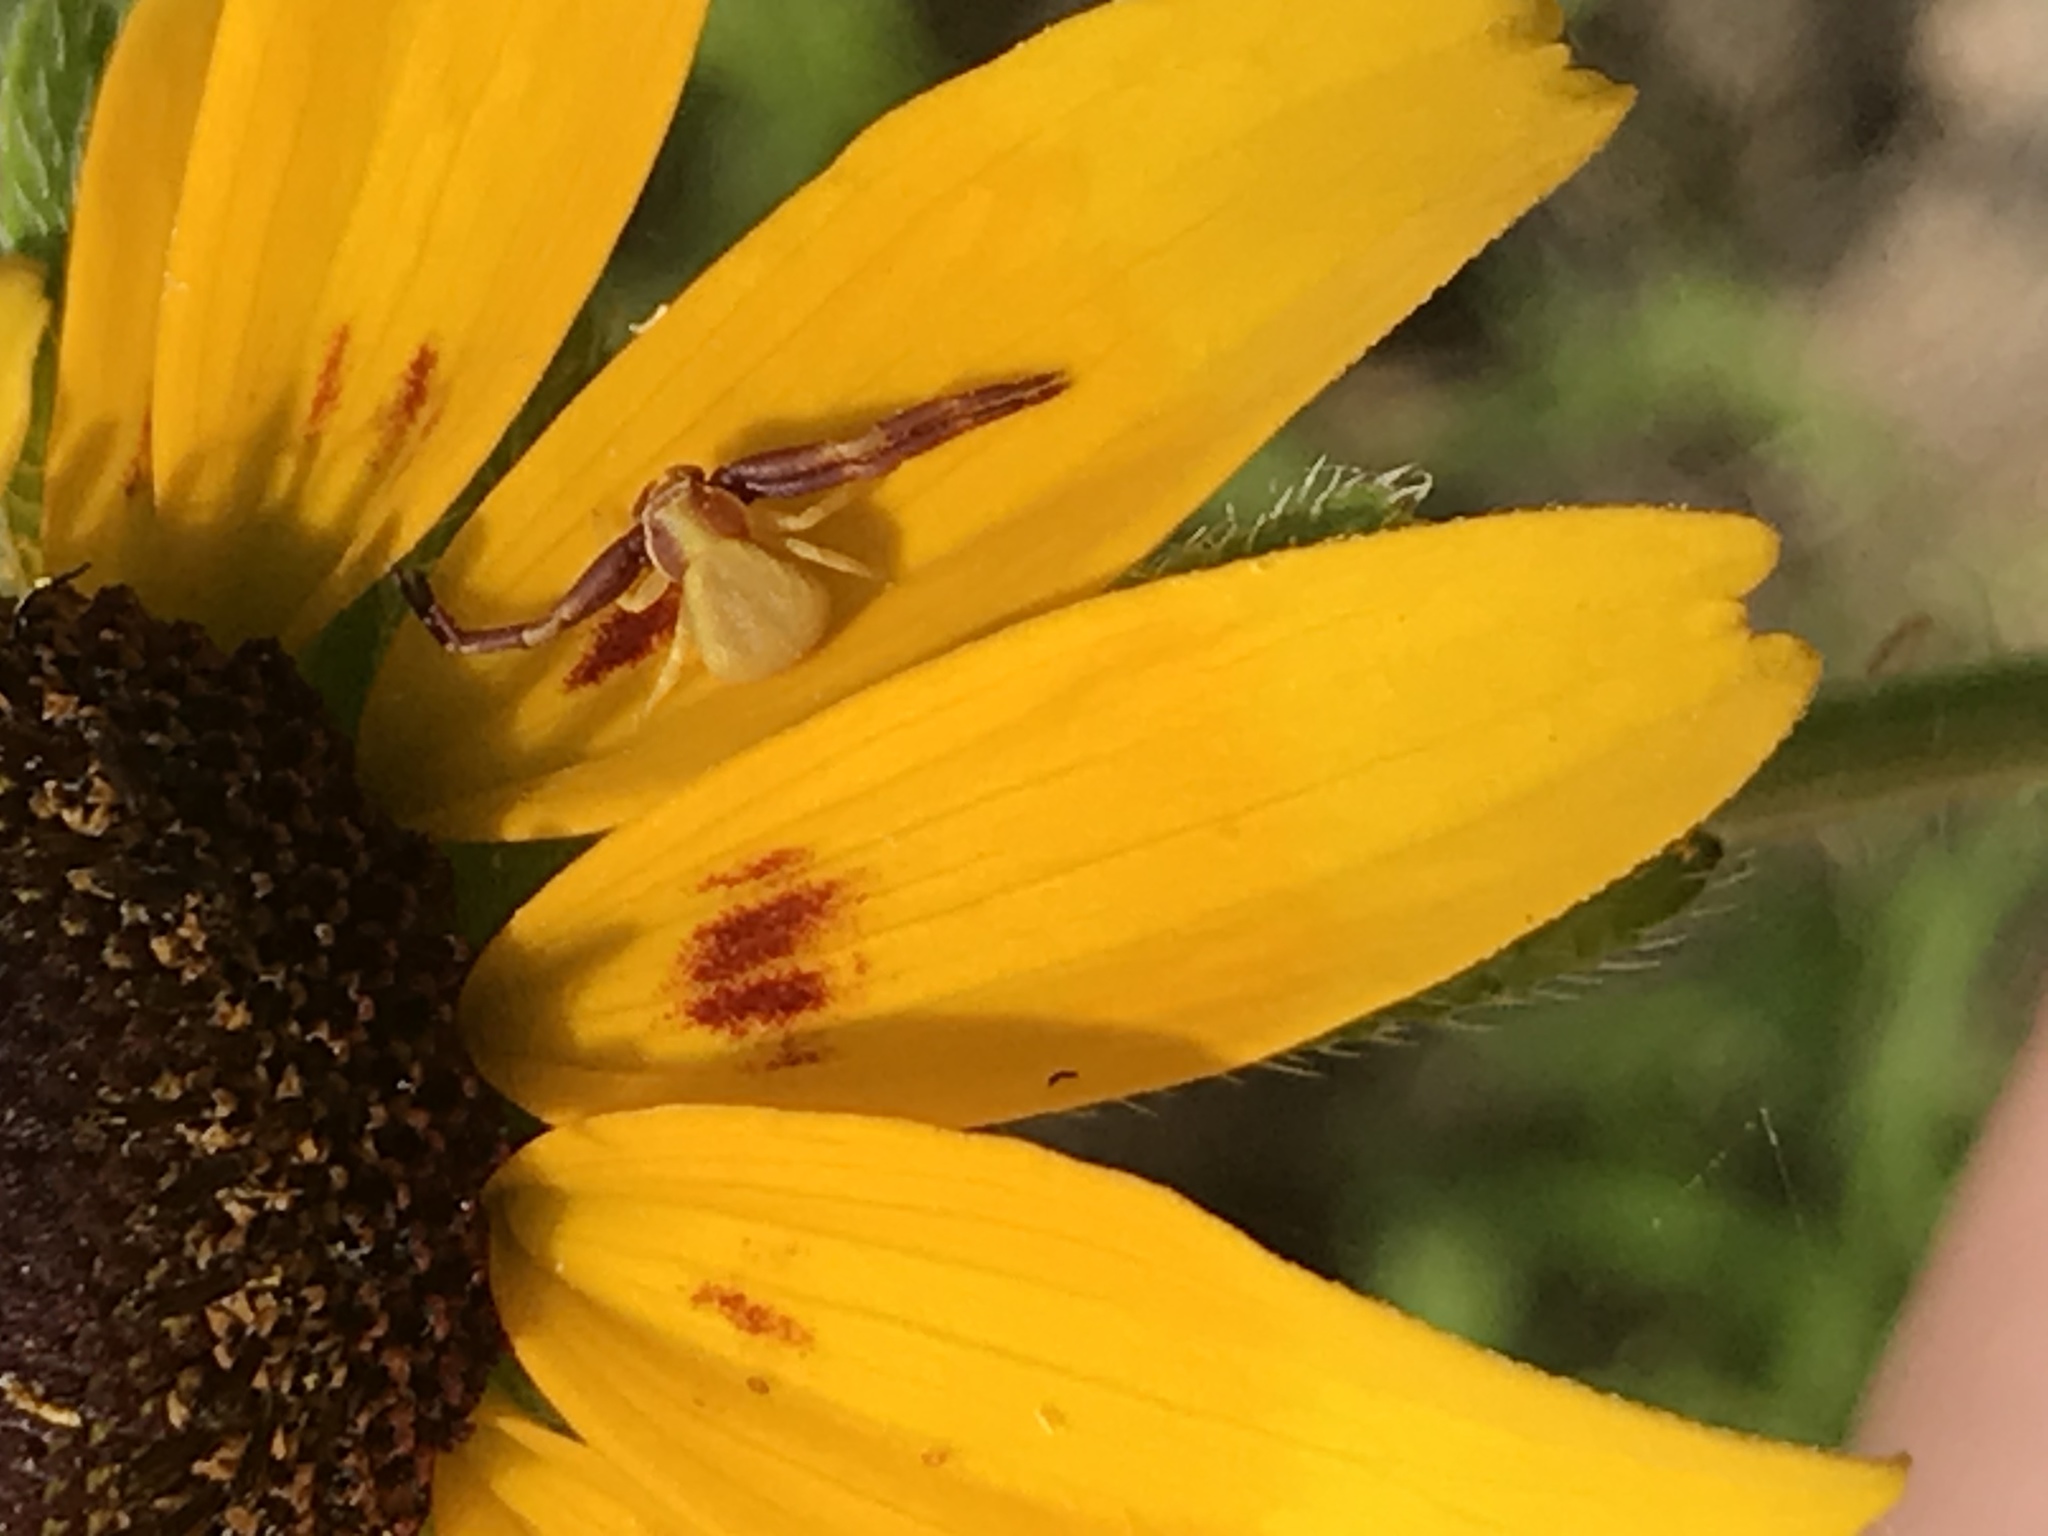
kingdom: Animalia
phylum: Arthropoda
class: Arachnida
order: Araneae
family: Thomisidae
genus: Misumenoides
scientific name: Misumenoides formosipes
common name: White-banded crab spider
